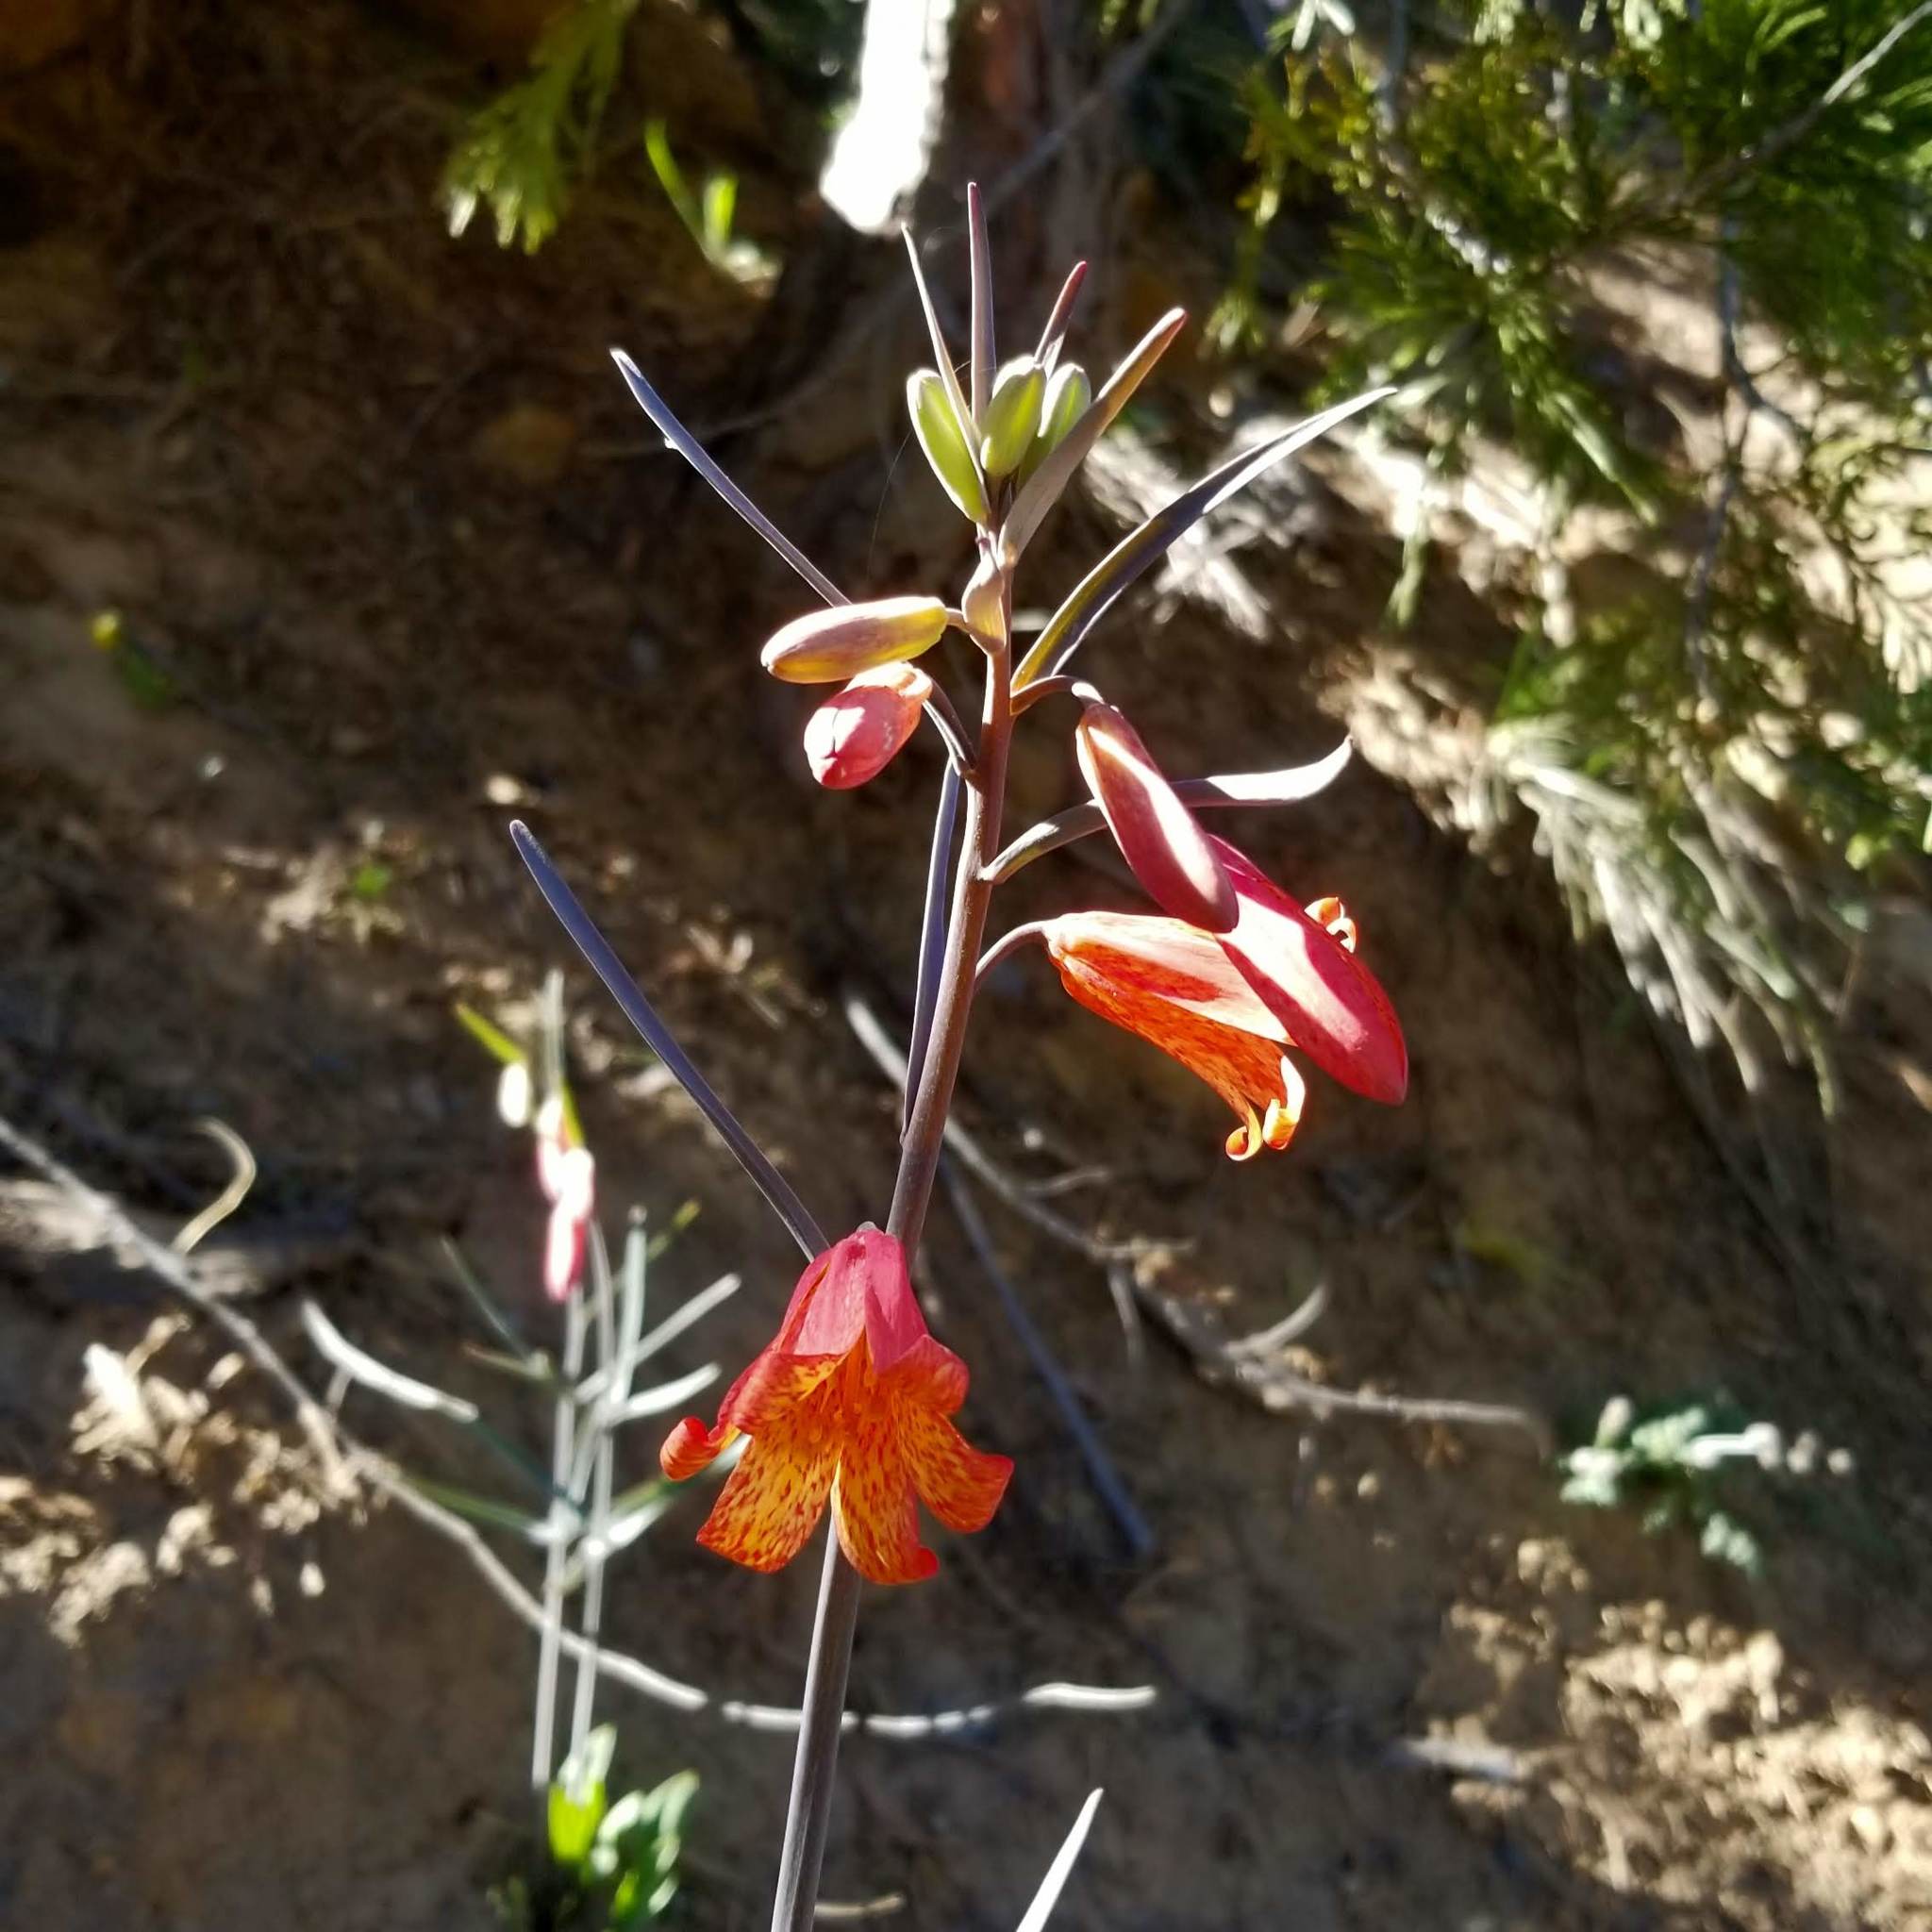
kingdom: Plantae
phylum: Tracheophyta
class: Liliopsida
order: Liliales
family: Liliaceae
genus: Fritillaria
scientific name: Fritillaria recurva
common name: Scarlet fritillary
